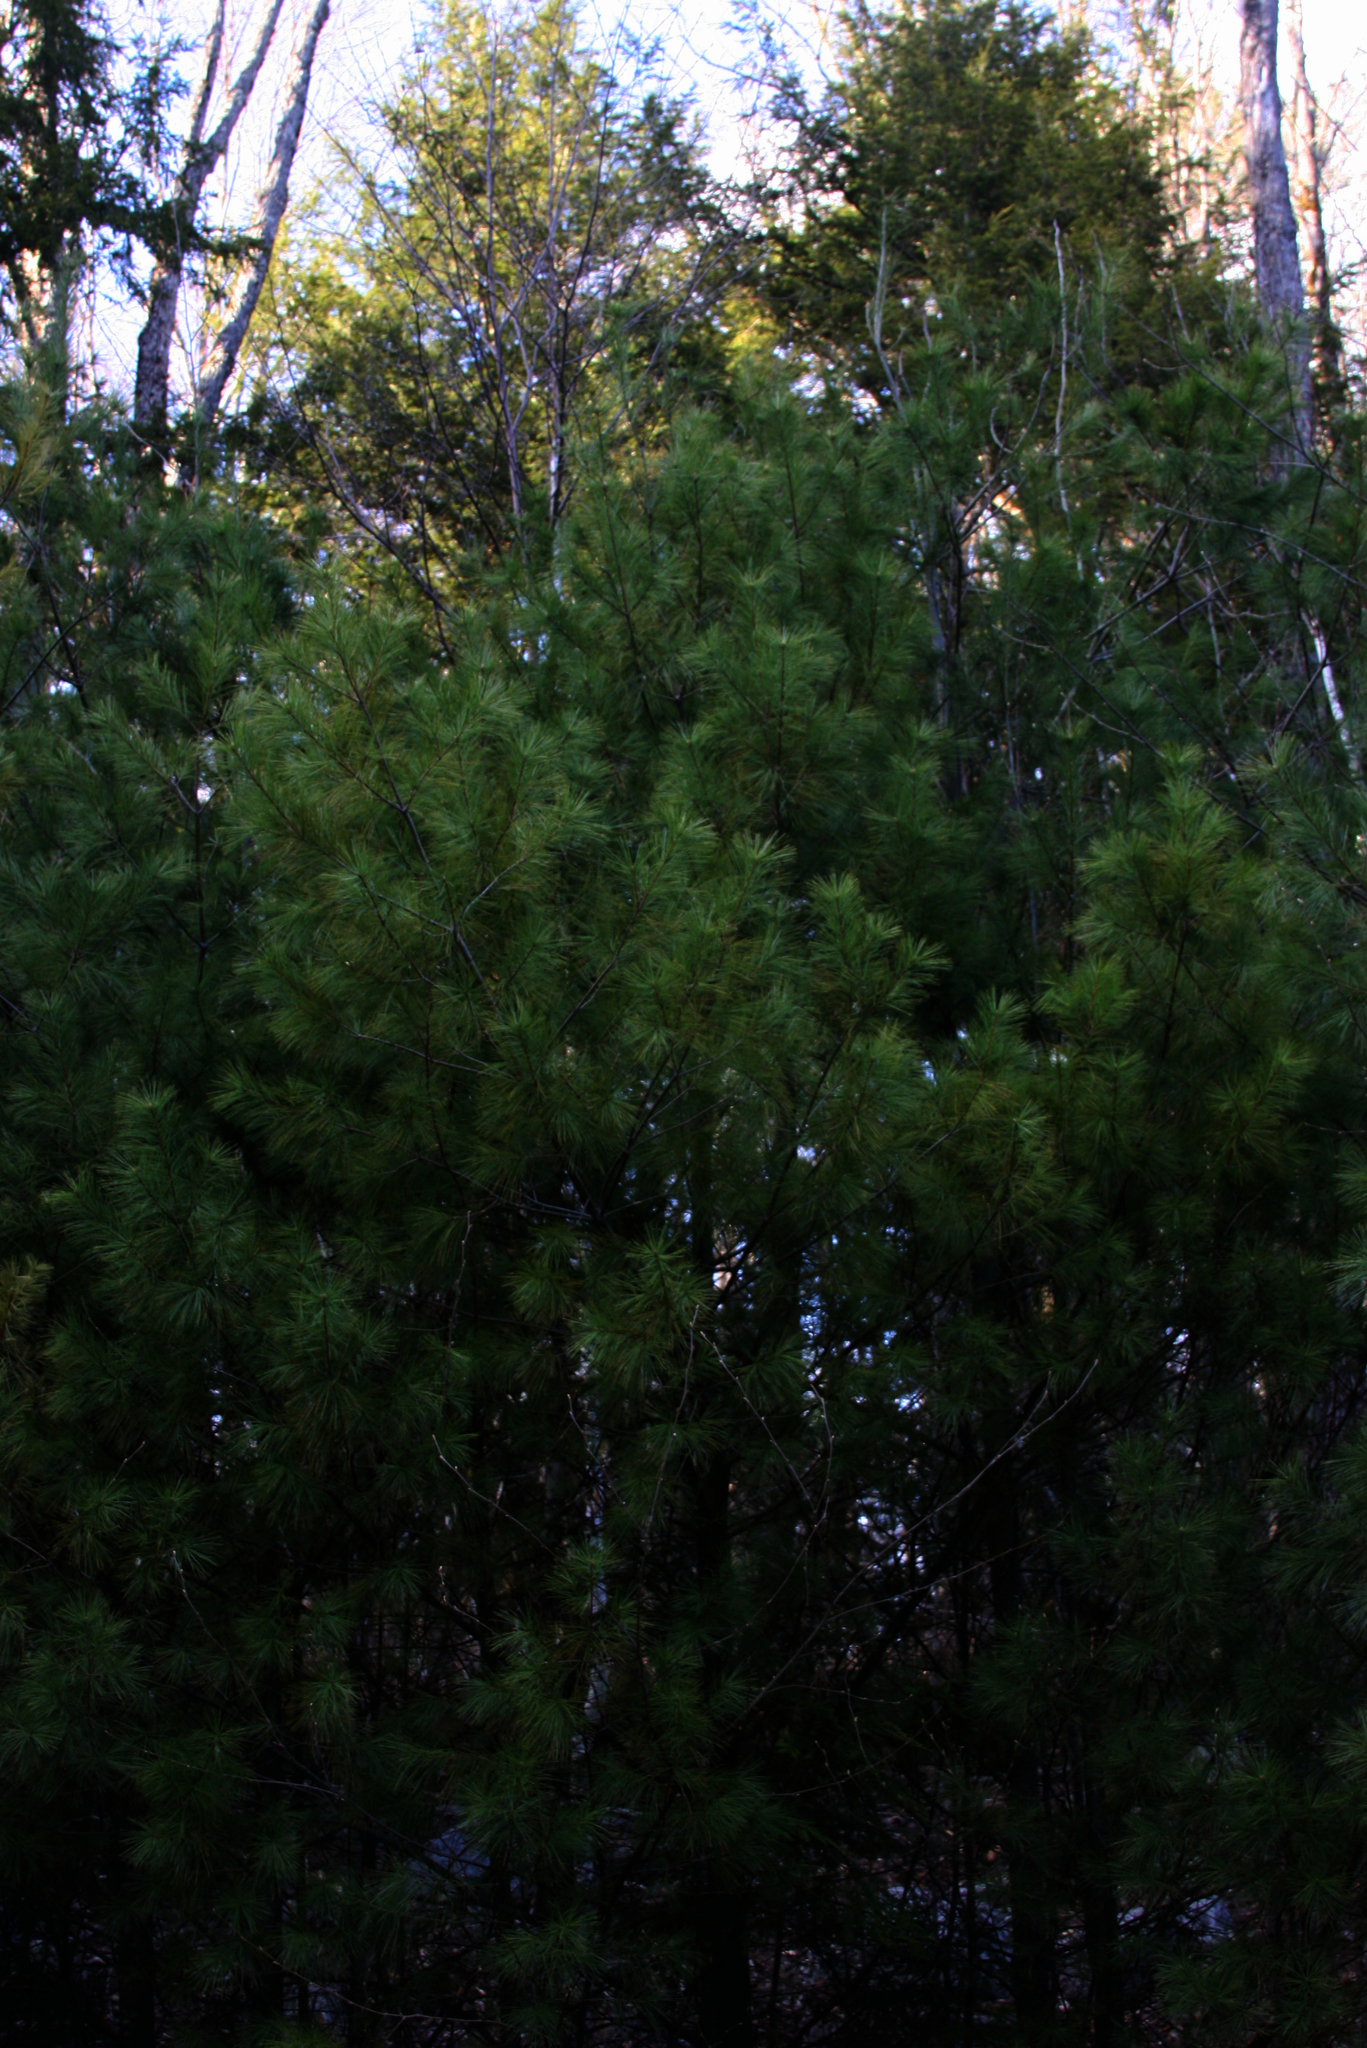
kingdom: Plantae
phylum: Tracheophyta
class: Pinopsida
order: Pinales
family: Pinaceae
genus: Pinus
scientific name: Pinus strobus
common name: Weymouth pine
